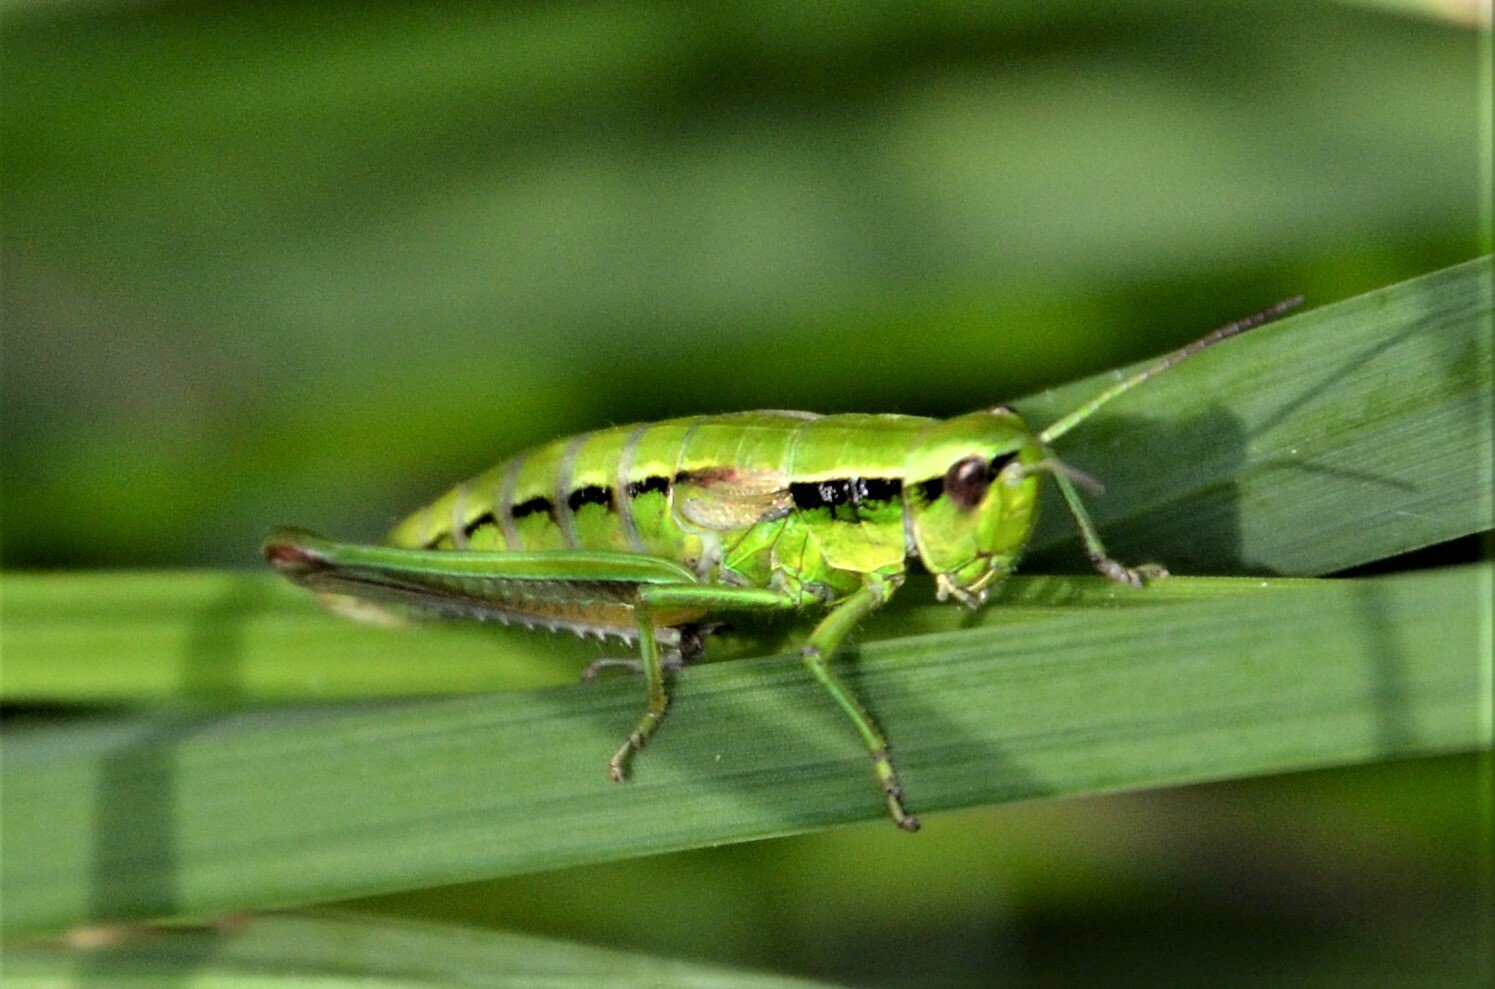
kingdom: Animalia
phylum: Arthropoda
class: Insecta
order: Orthoptera
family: Acrididae
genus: Euthystira
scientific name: Euthystira brachyptera
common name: Small gold grasshopper
